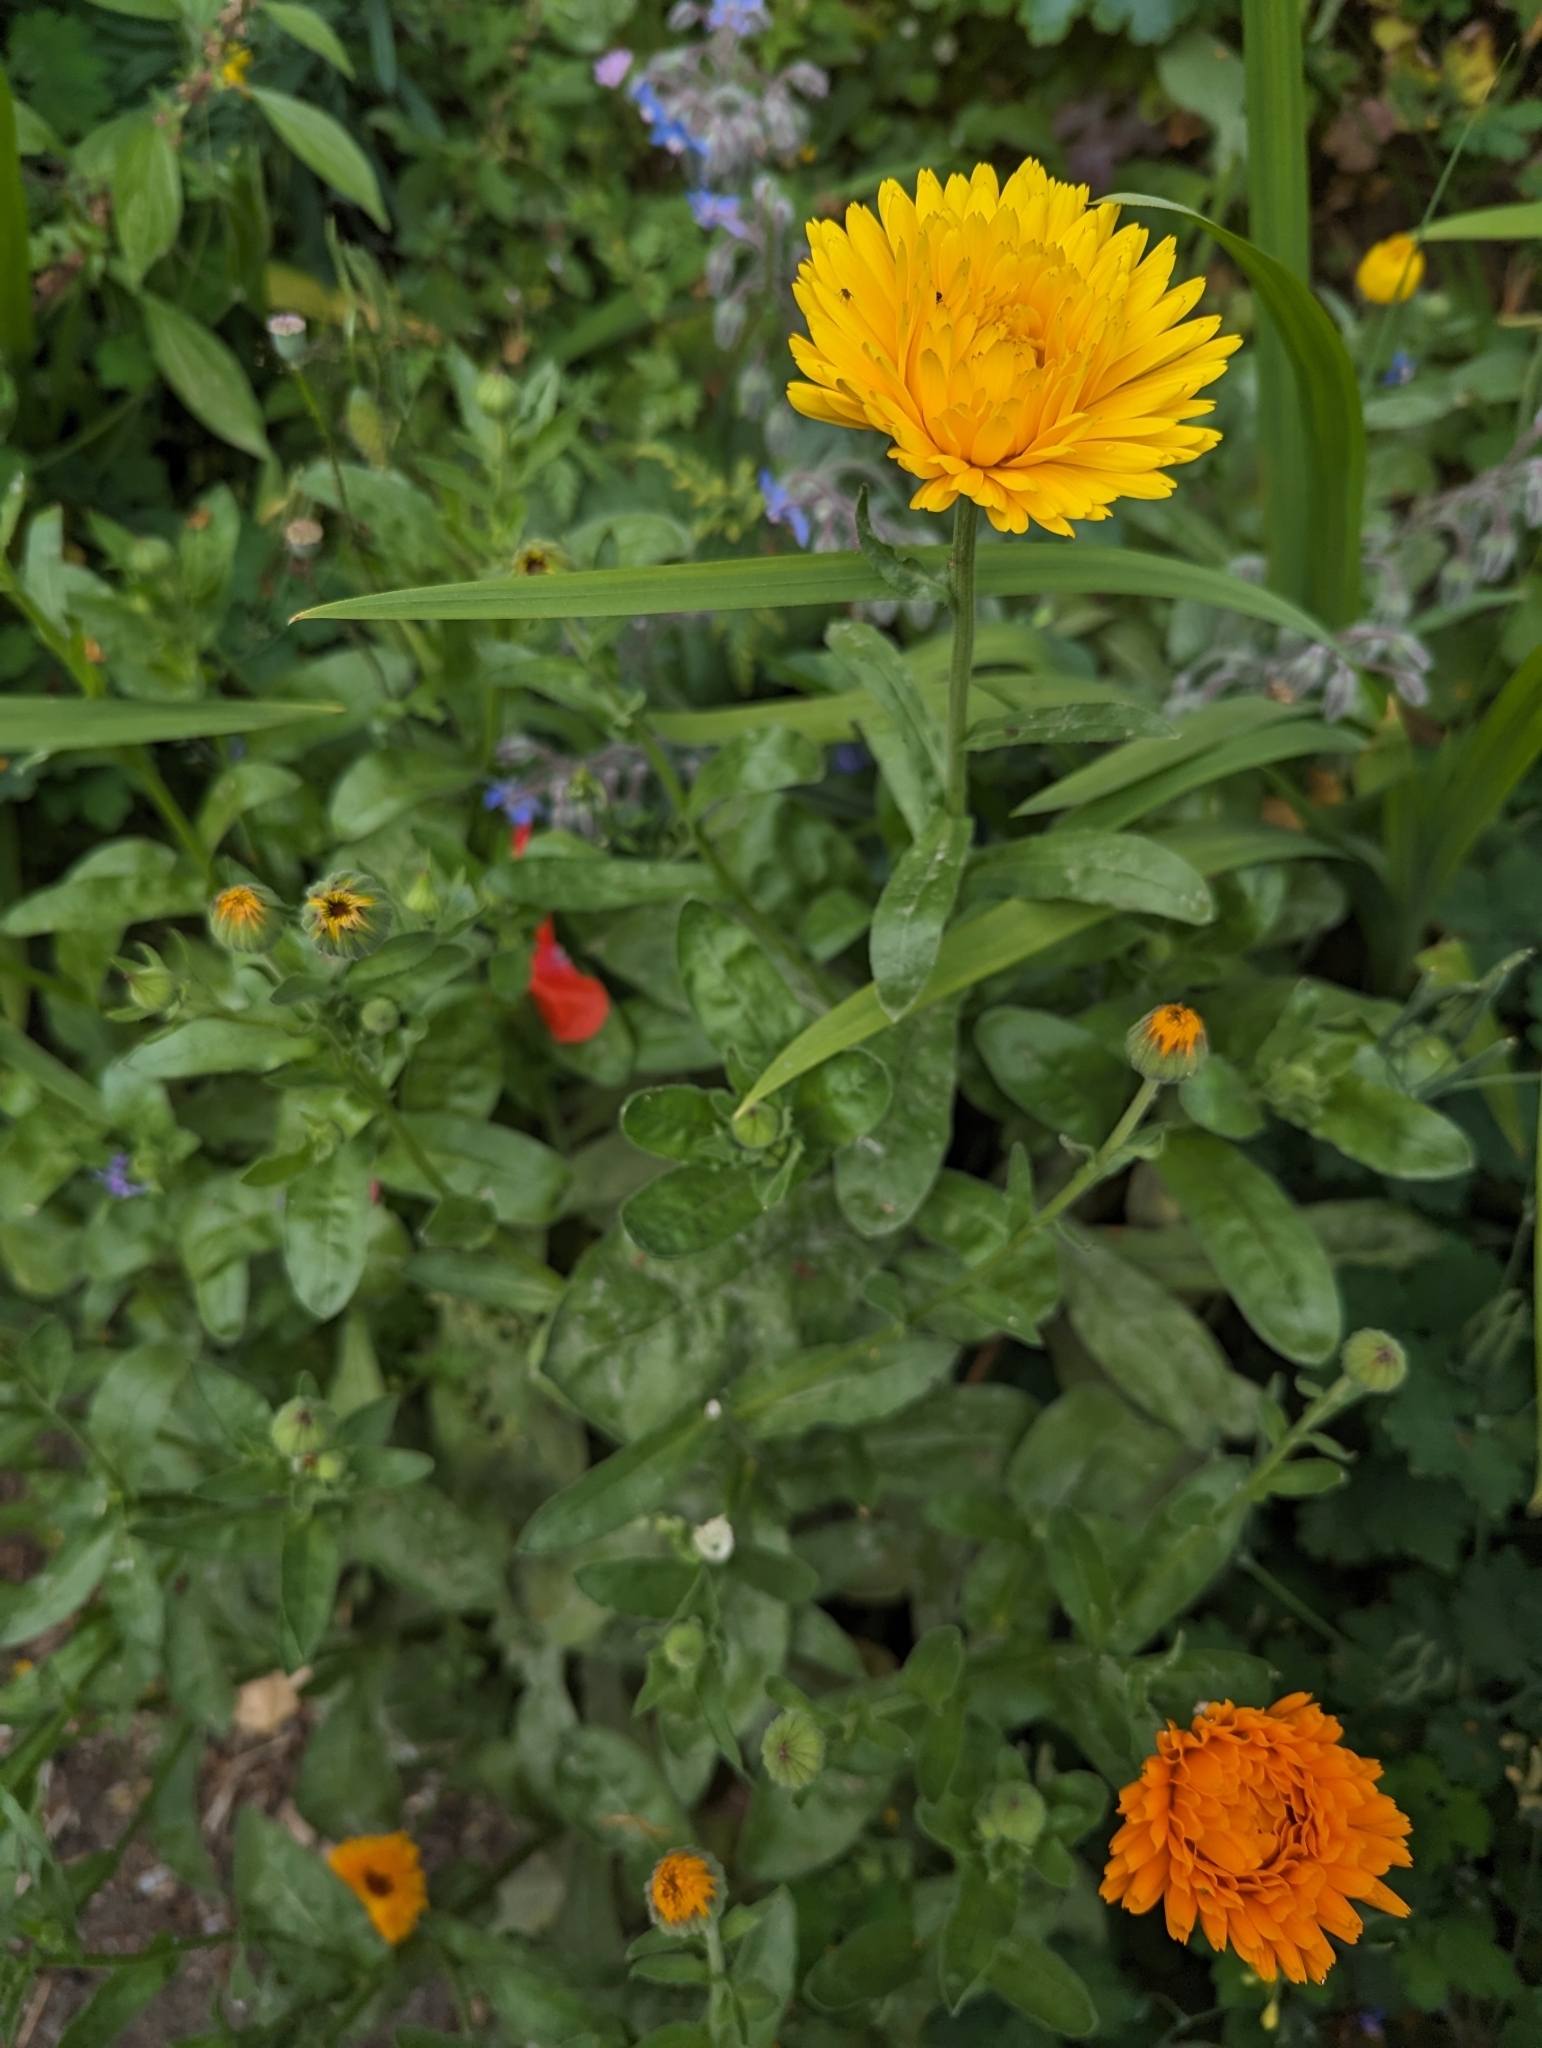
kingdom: Plantae
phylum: Tracheophyta
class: Magnoliopsida
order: Asterales
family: Asteraceae
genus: Calendula
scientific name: Calendula officinalis
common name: Pot marigold
